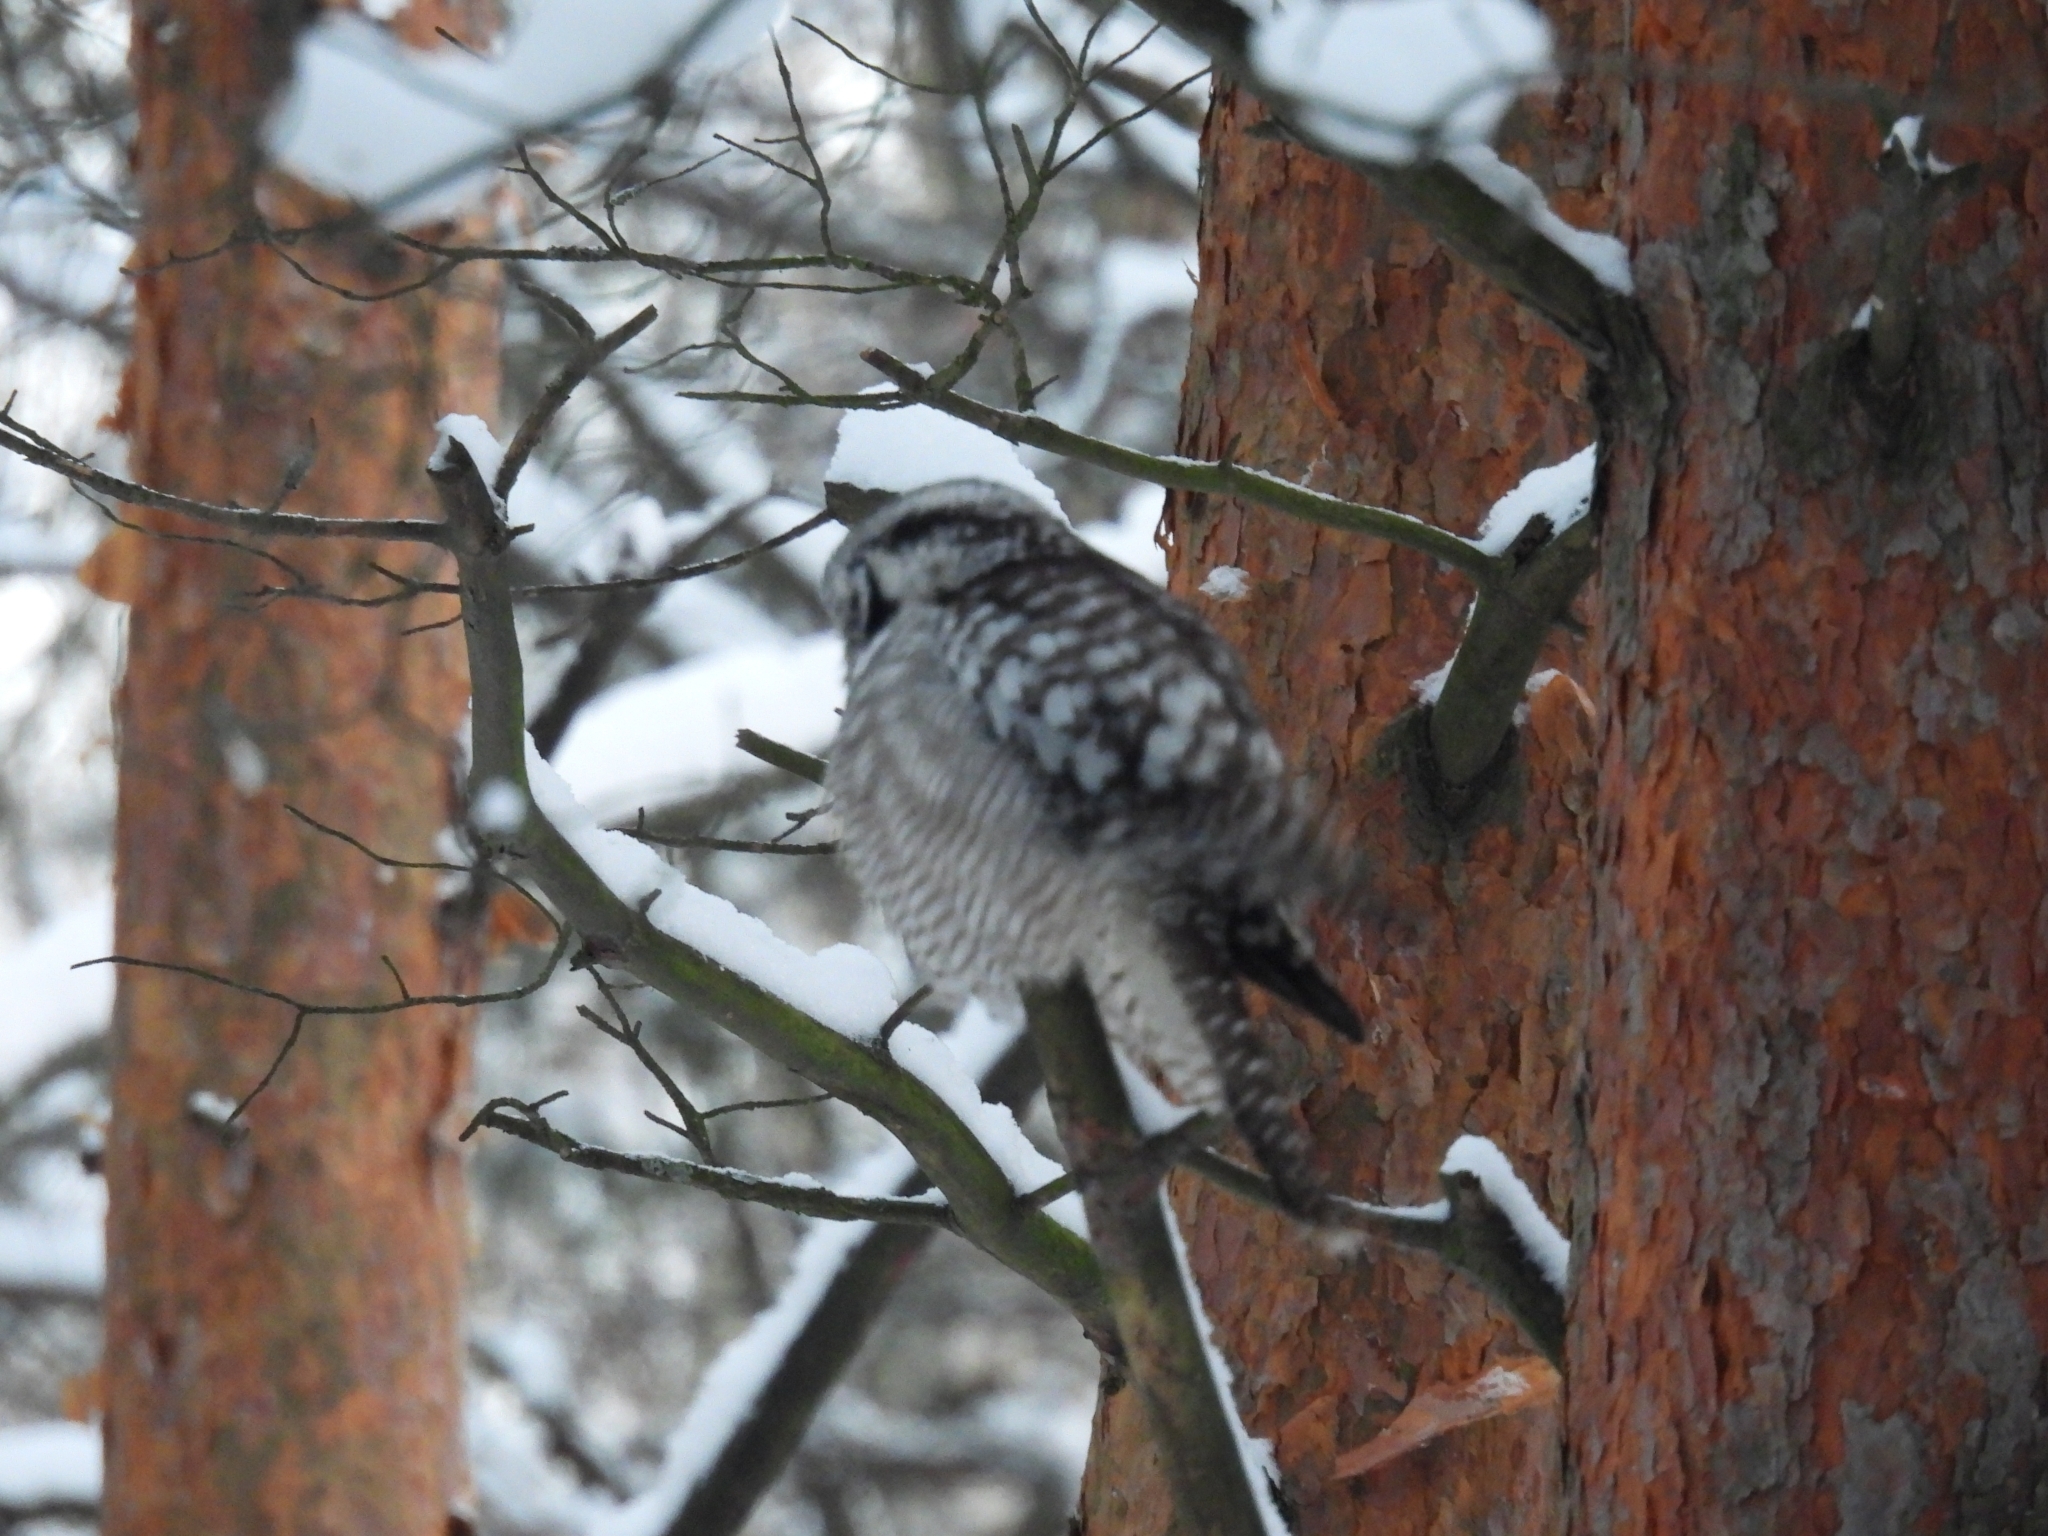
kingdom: Animalia
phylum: Chordata
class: Aves
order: Strigiformes
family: Strigidae
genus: Surnia
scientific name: Surnia ulula
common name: Northern hawk-owl
